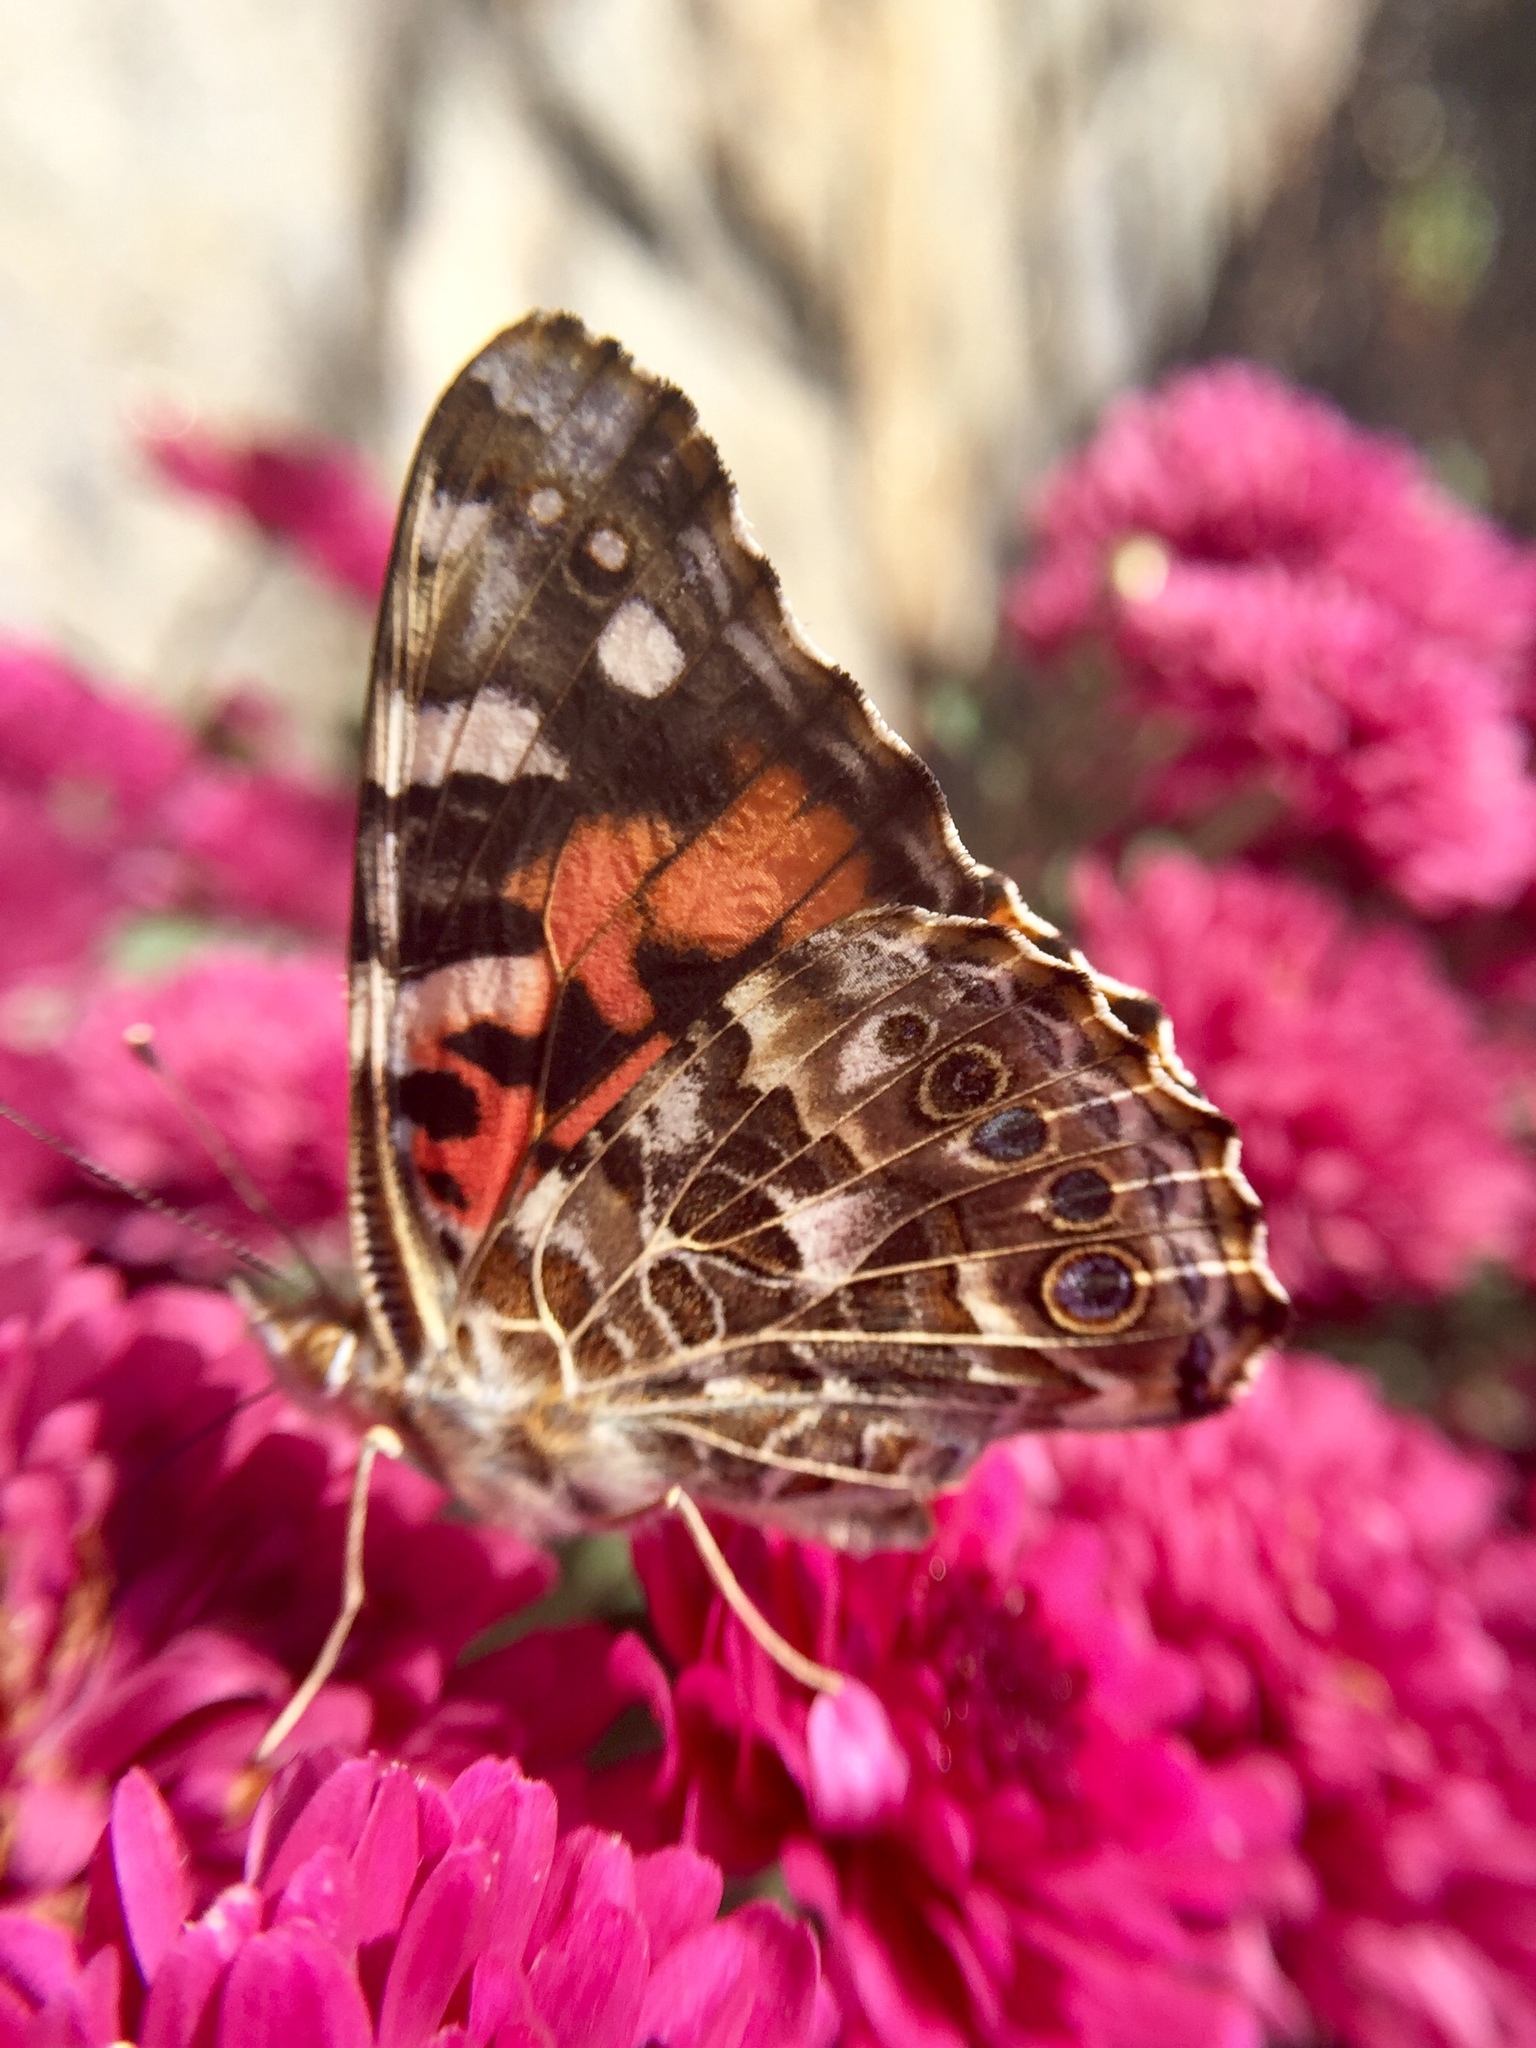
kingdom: Animalia
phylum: Arthropoda
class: Insecta
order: Lepidoptera
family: Nymphalidae
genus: Vanessa
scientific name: Vanessa cardui
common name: Painted lady
